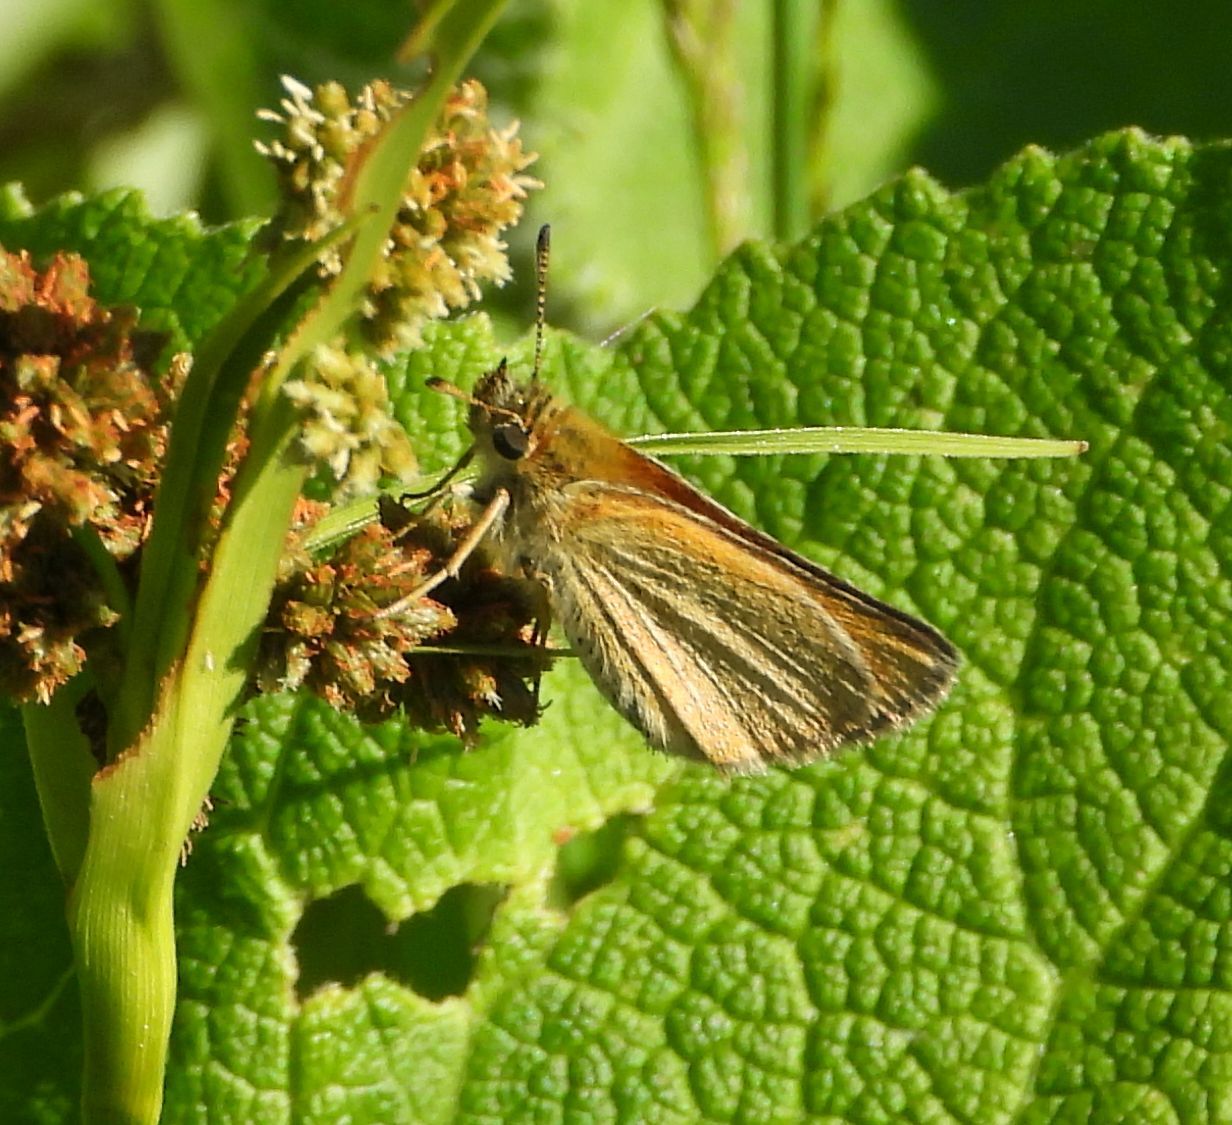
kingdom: Animalia
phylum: Arthropoda
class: Insecta
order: Lepidoptera
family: Hesperiidae
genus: Thymelicus
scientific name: Thymelicus lineola
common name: Essex skipper
